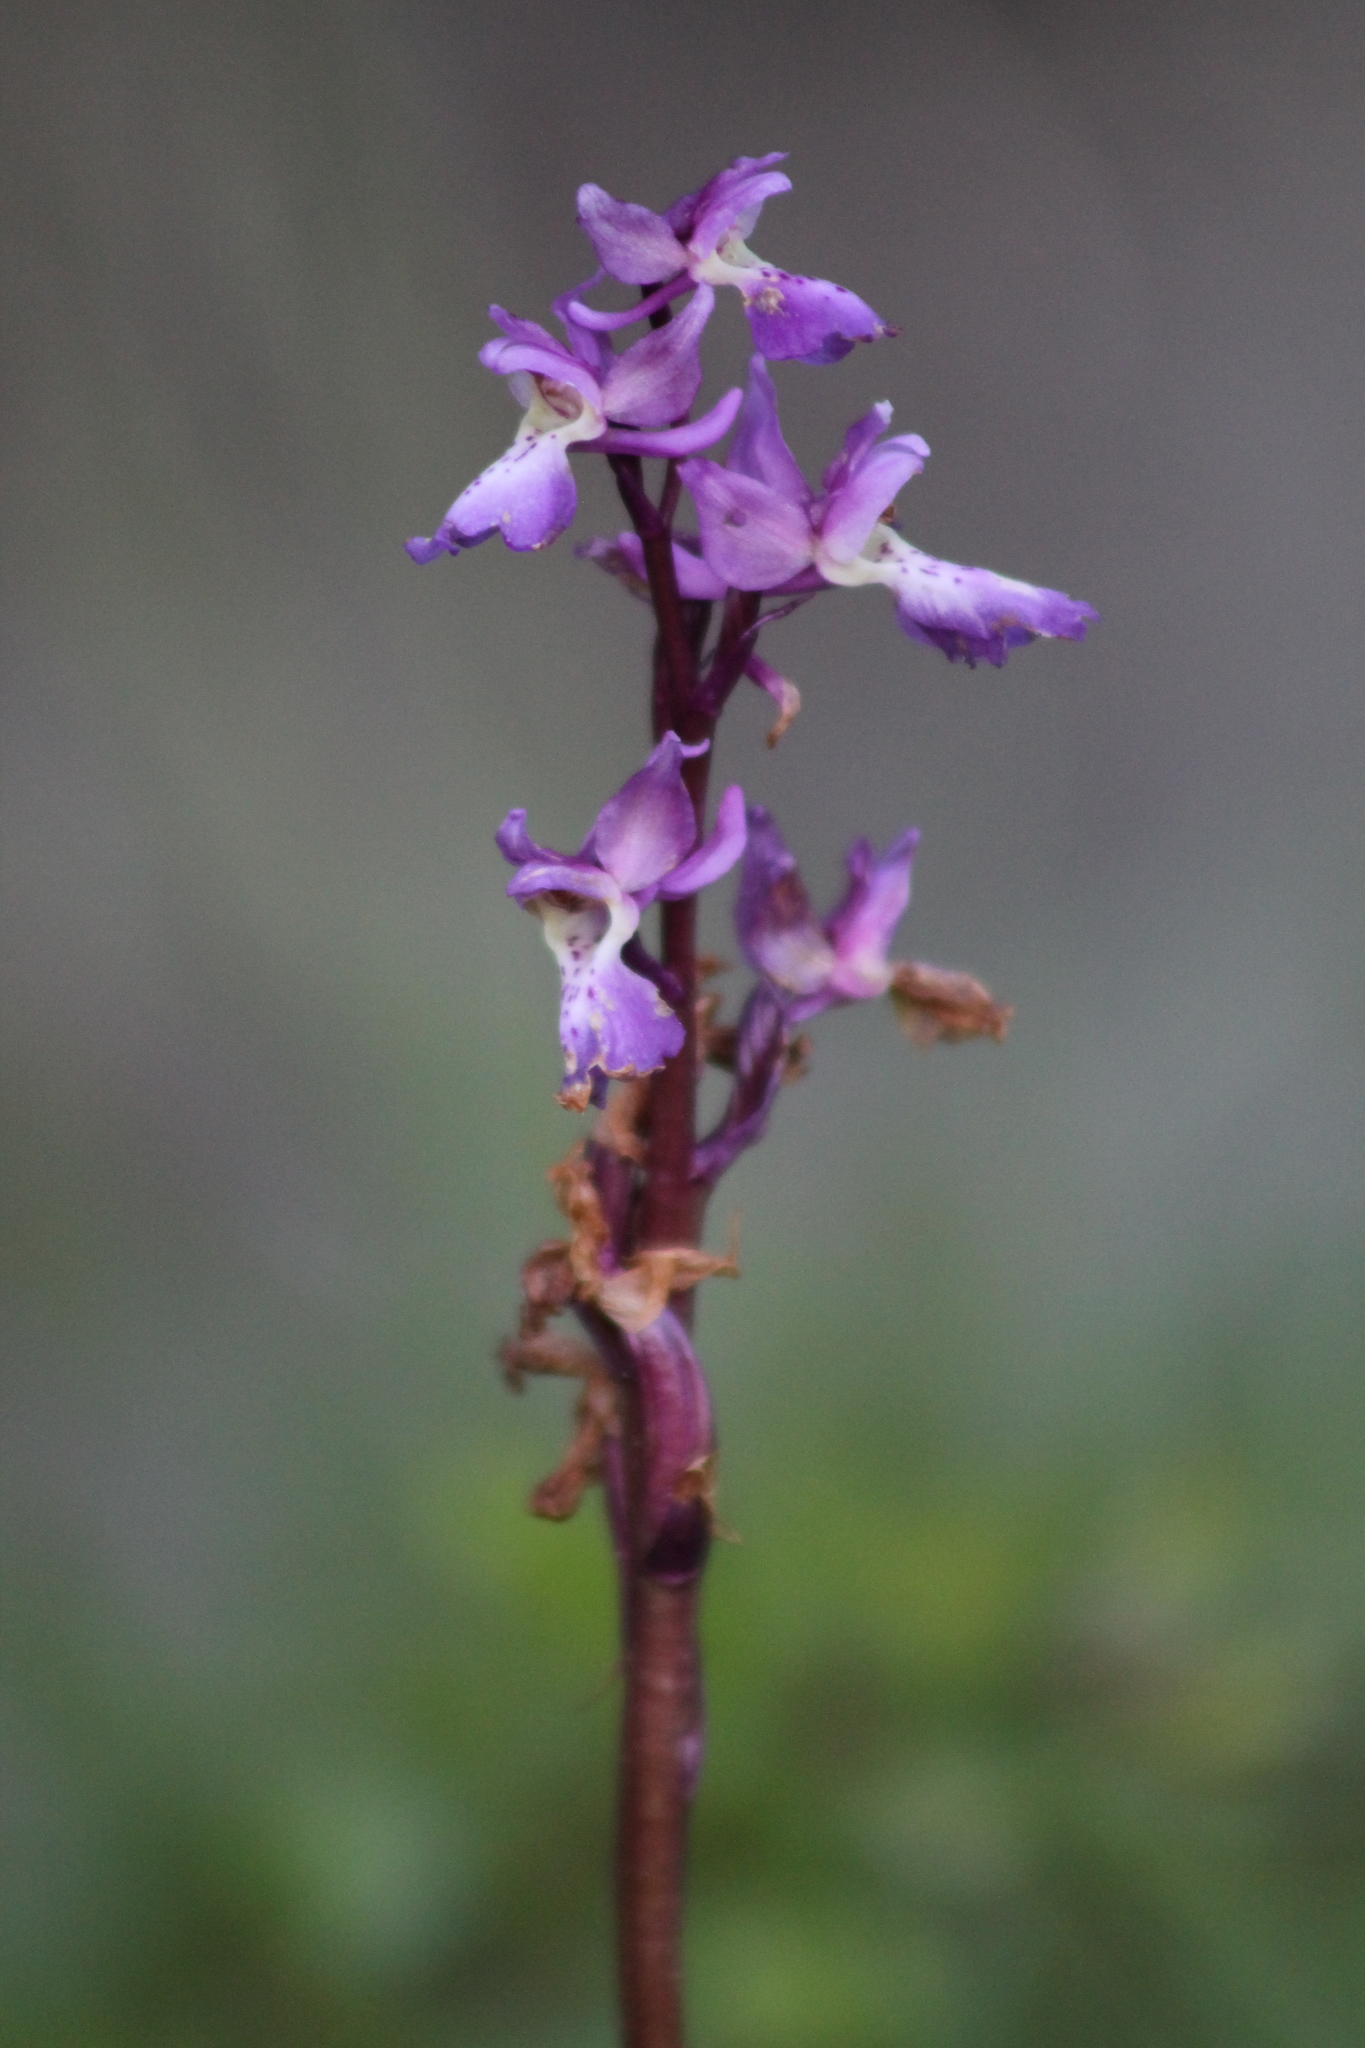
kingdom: Plantae
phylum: Tracheophyta
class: Liliopsida
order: Asparagales
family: Orchidaceae
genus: Orchis
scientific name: Orchis mascula
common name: Early-purple orchid
